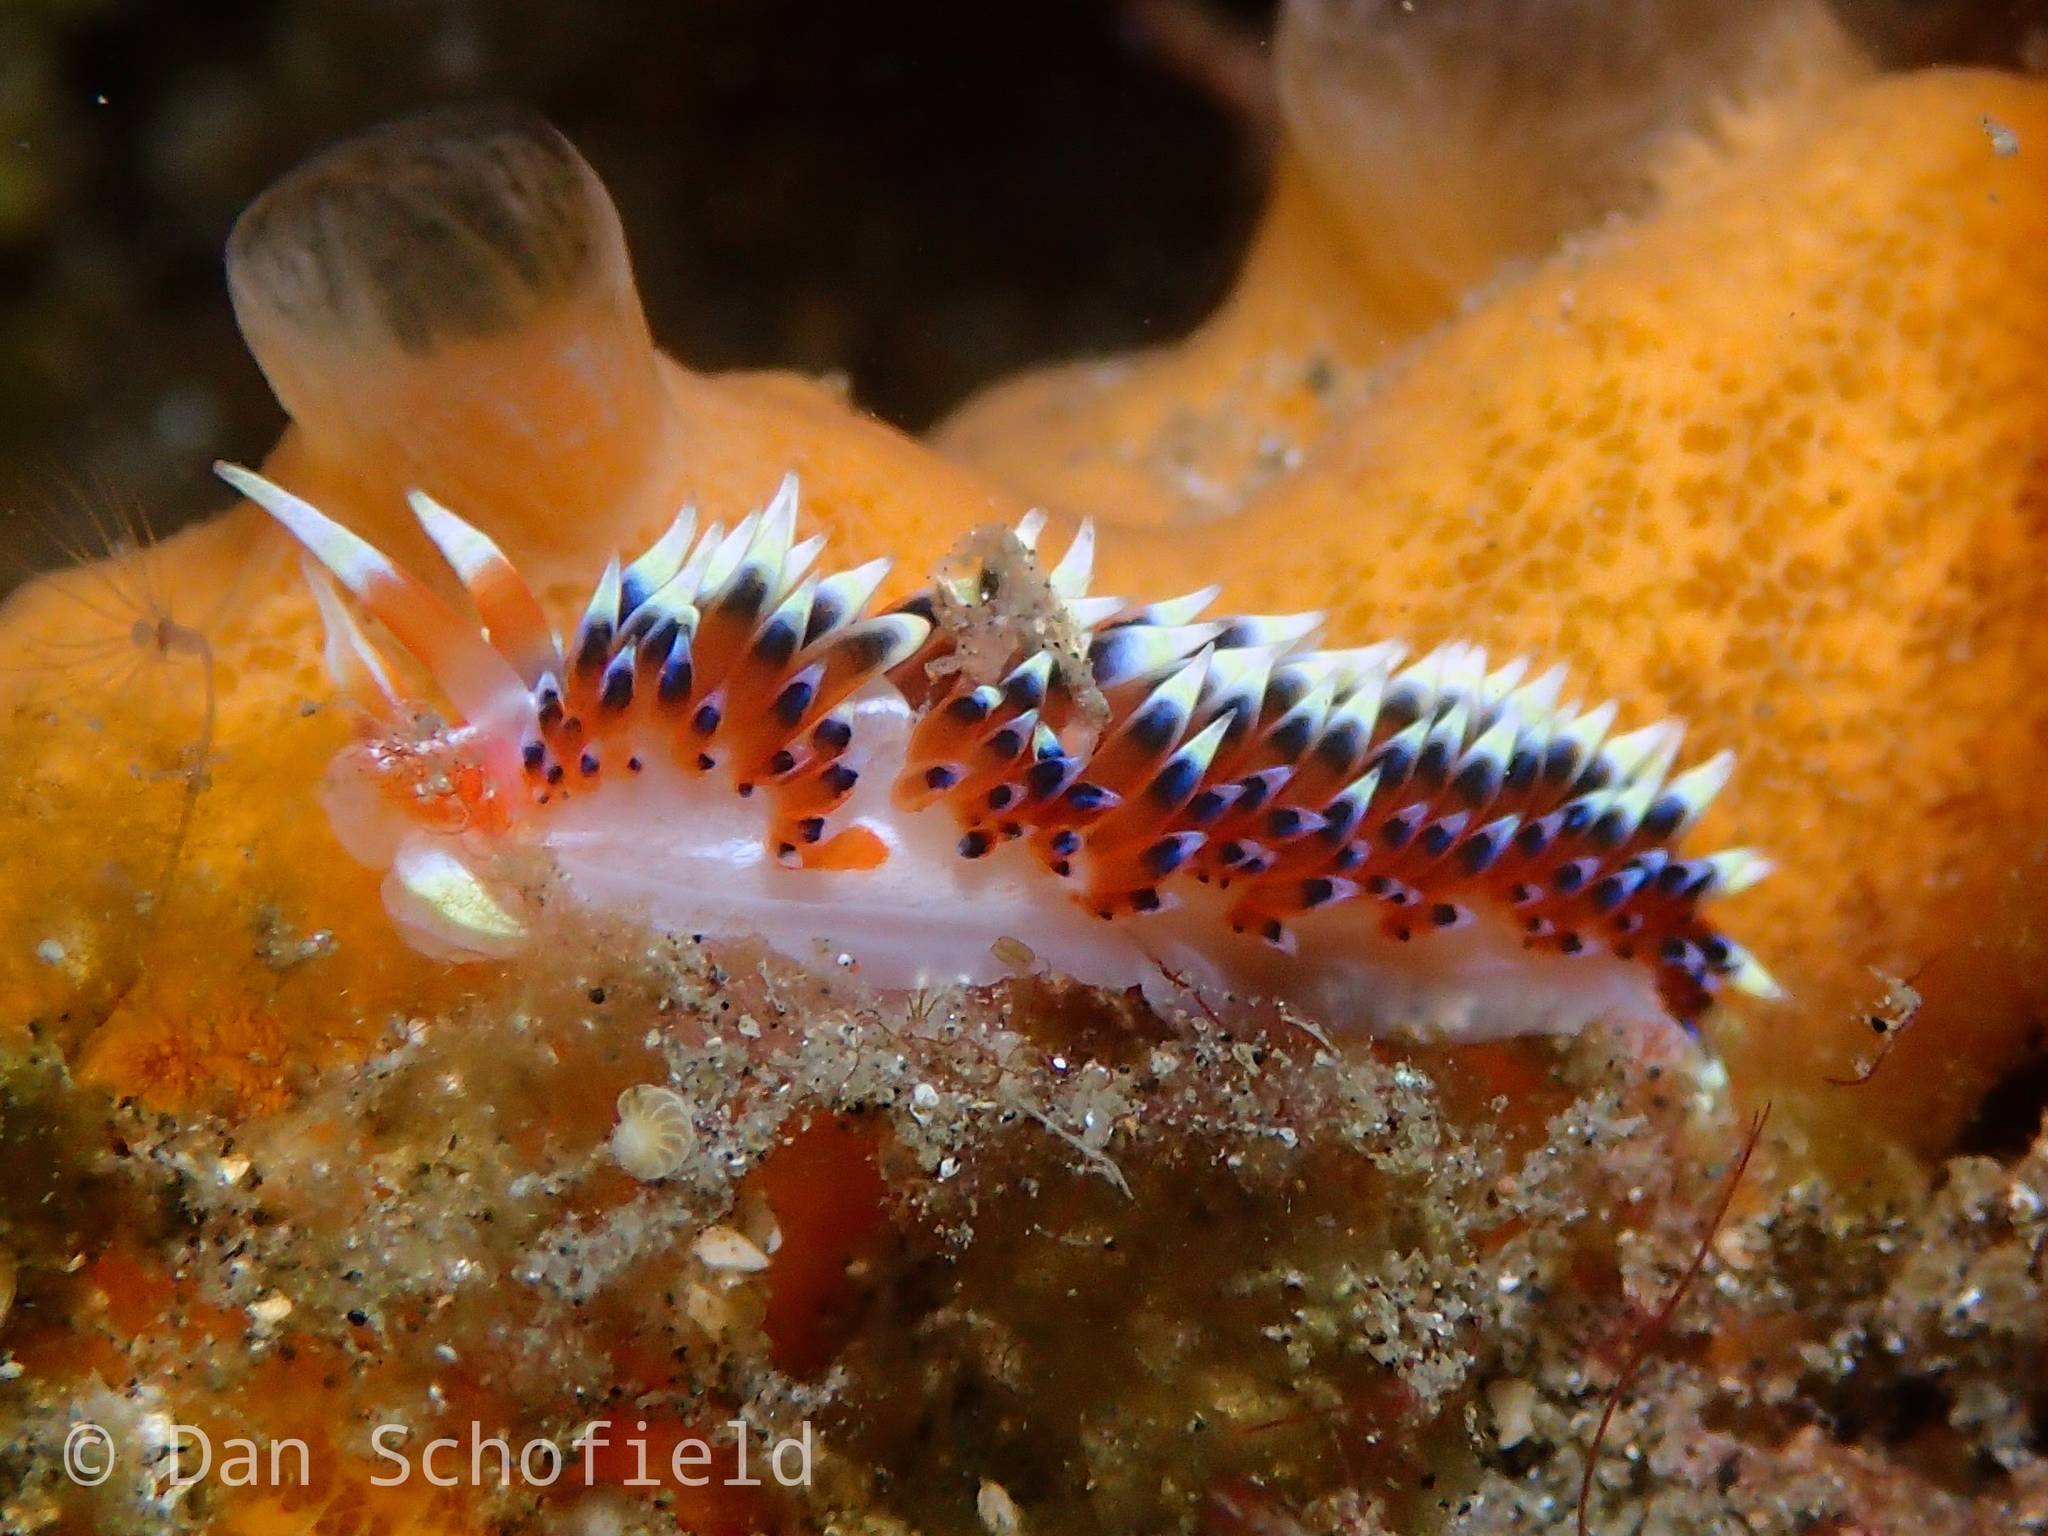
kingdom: Animalia
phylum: Mollusca
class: Gastropoda
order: Nudibranchia
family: Facelinidae
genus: Caloria
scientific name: Caloria indica
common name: Sea slug
